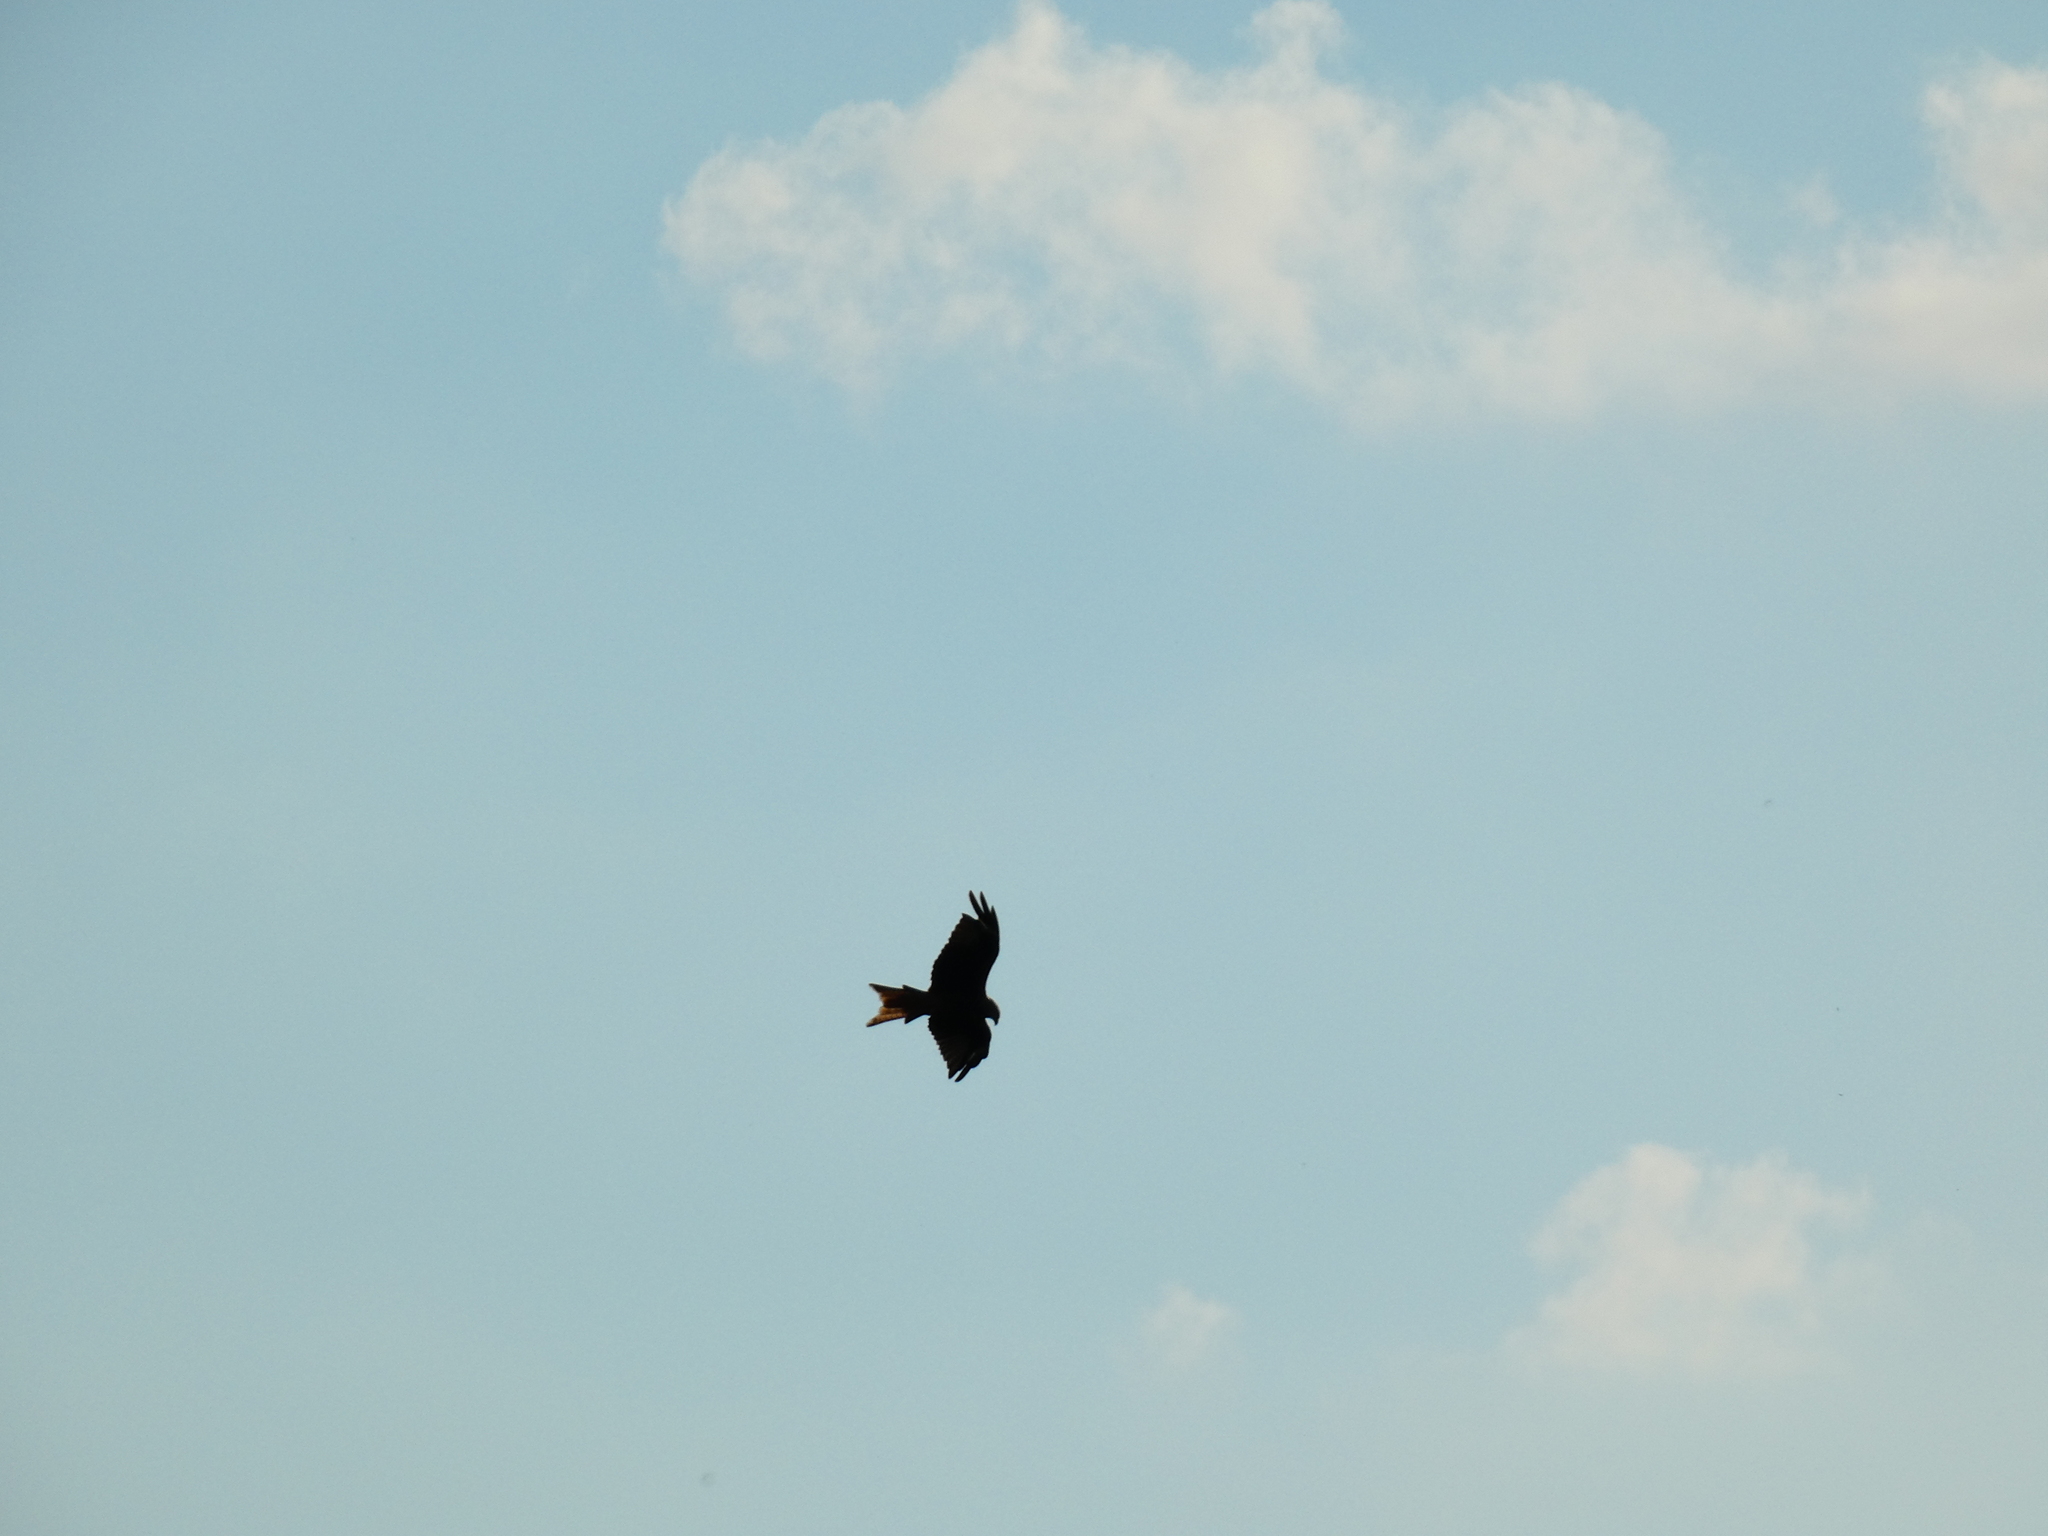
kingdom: Animalia
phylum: Chordata
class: Aves
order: Accipitriformes
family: Accipitridae
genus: Milvus
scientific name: Milvus milvus
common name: Red kite
